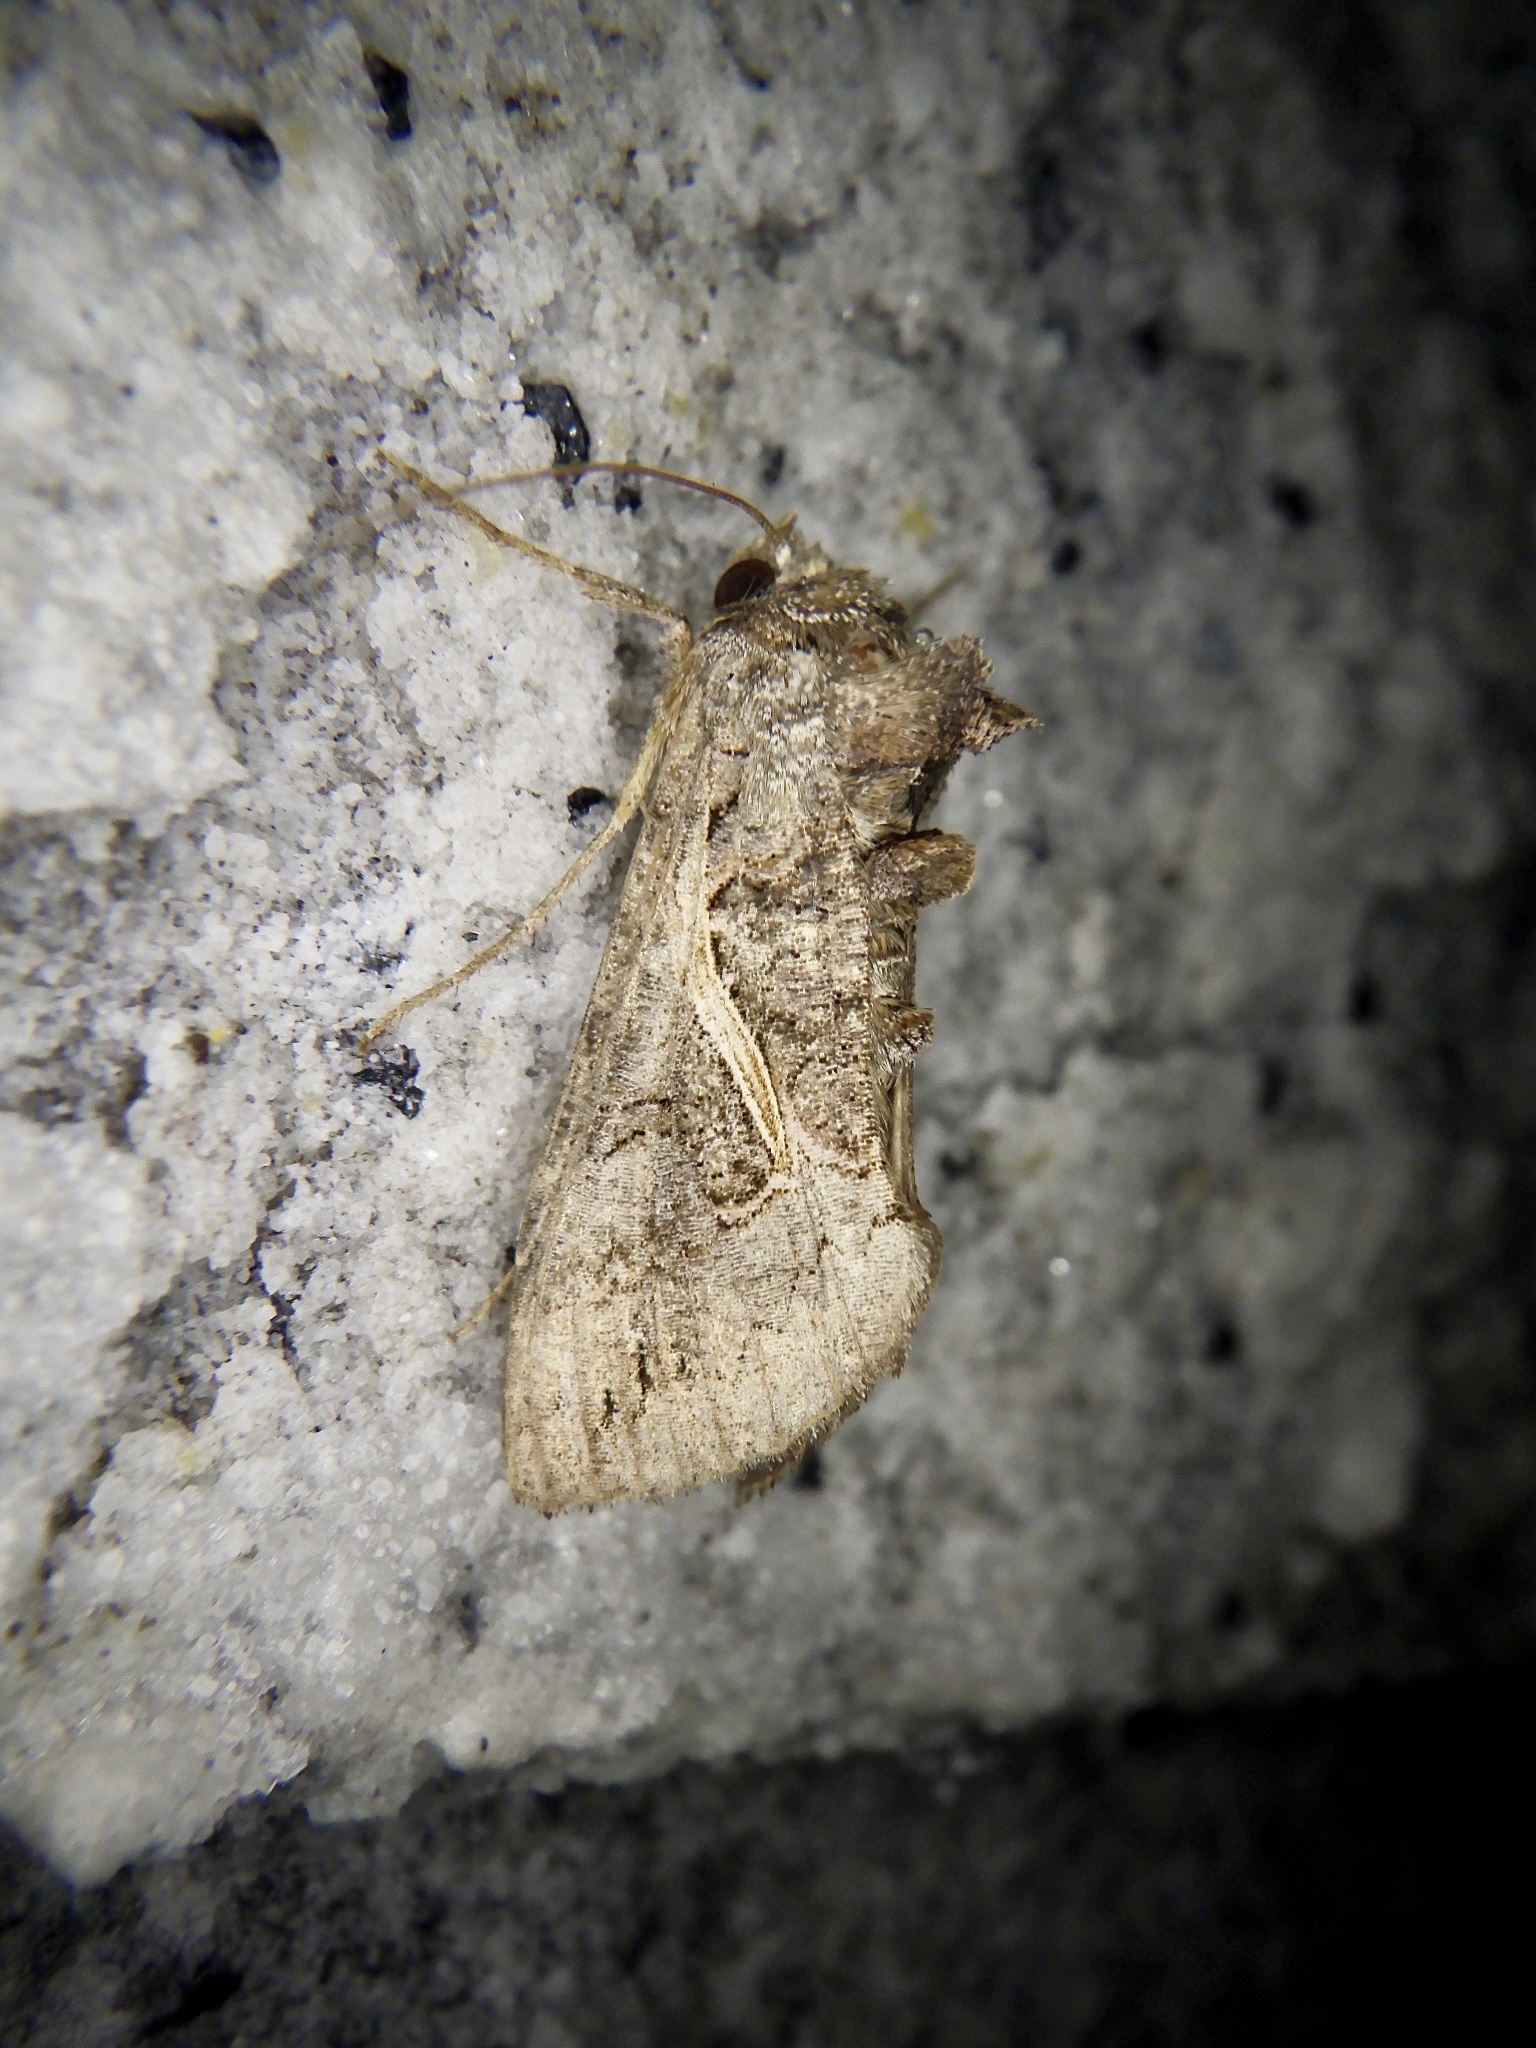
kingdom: Animalia
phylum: Arthropoda
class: Insecta
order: Lepidoptera
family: Noctuidae
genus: Ctenoplusia
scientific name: Ctenoplusia albostriata
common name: Moth
